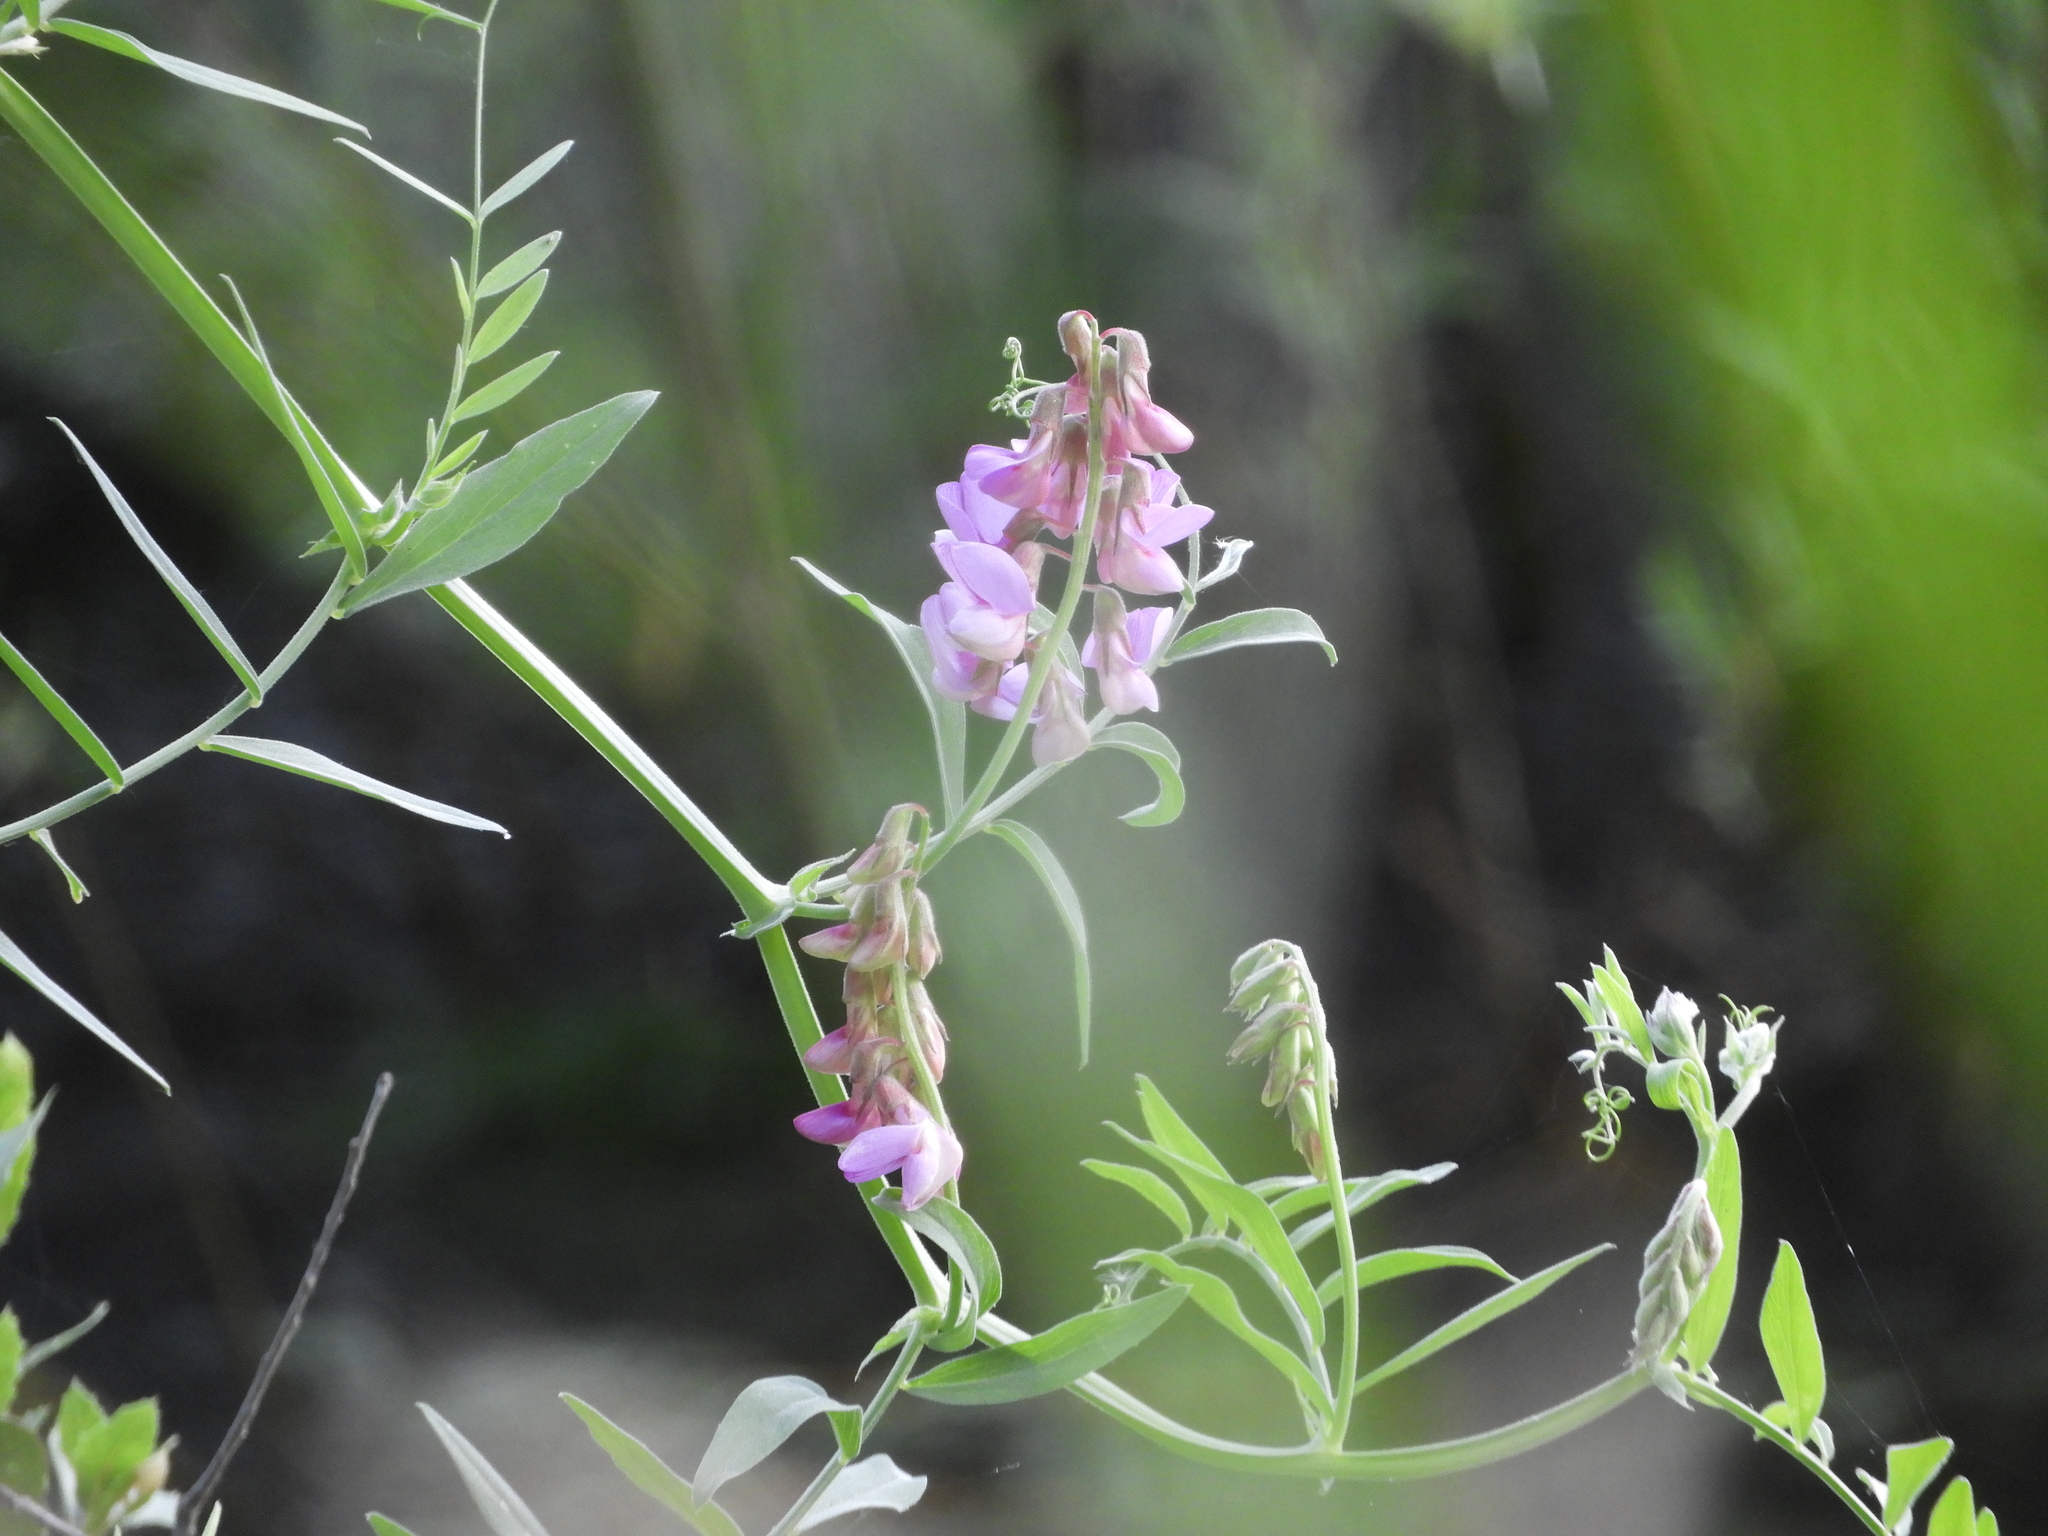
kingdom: Plantae
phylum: Tracheophyta
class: Magnoliopsida
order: Fabales
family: Fabaceae
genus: Vicia
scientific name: Vicia villosa
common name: Fodder vetch
